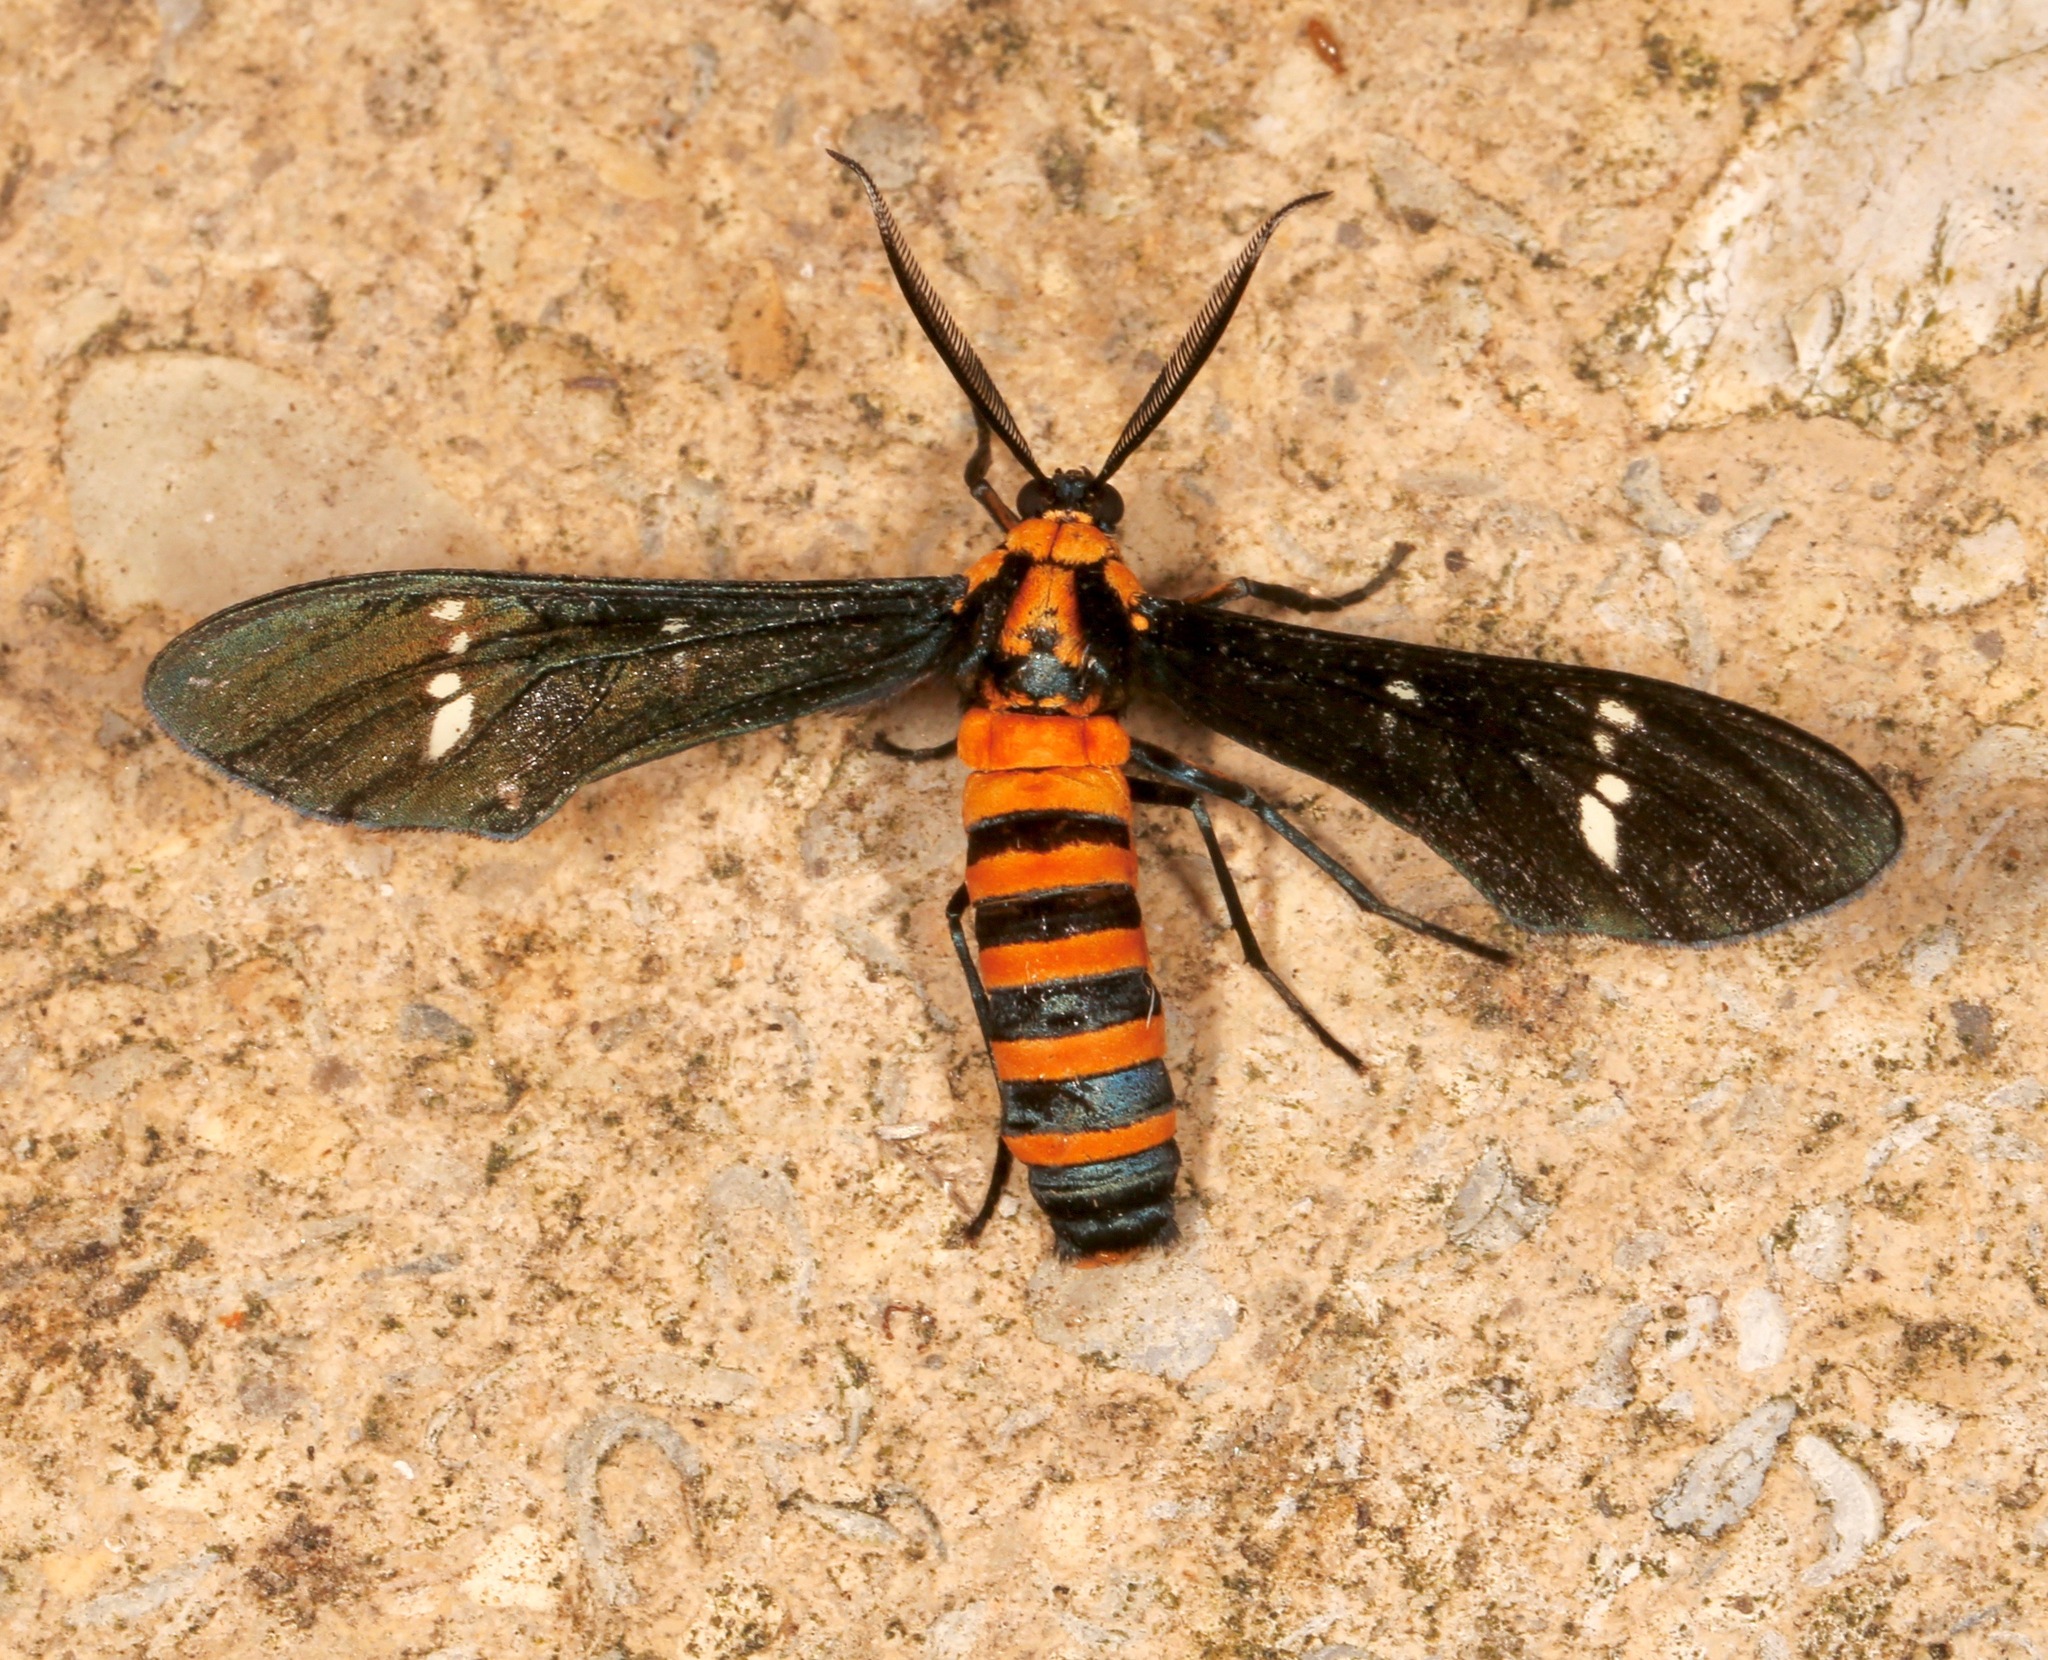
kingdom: Animalia
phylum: Arthropoda
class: Insecta
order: Lepidoptera
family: Erebidae
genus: Syntomeida
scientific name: Syntomeida ipomoeae
